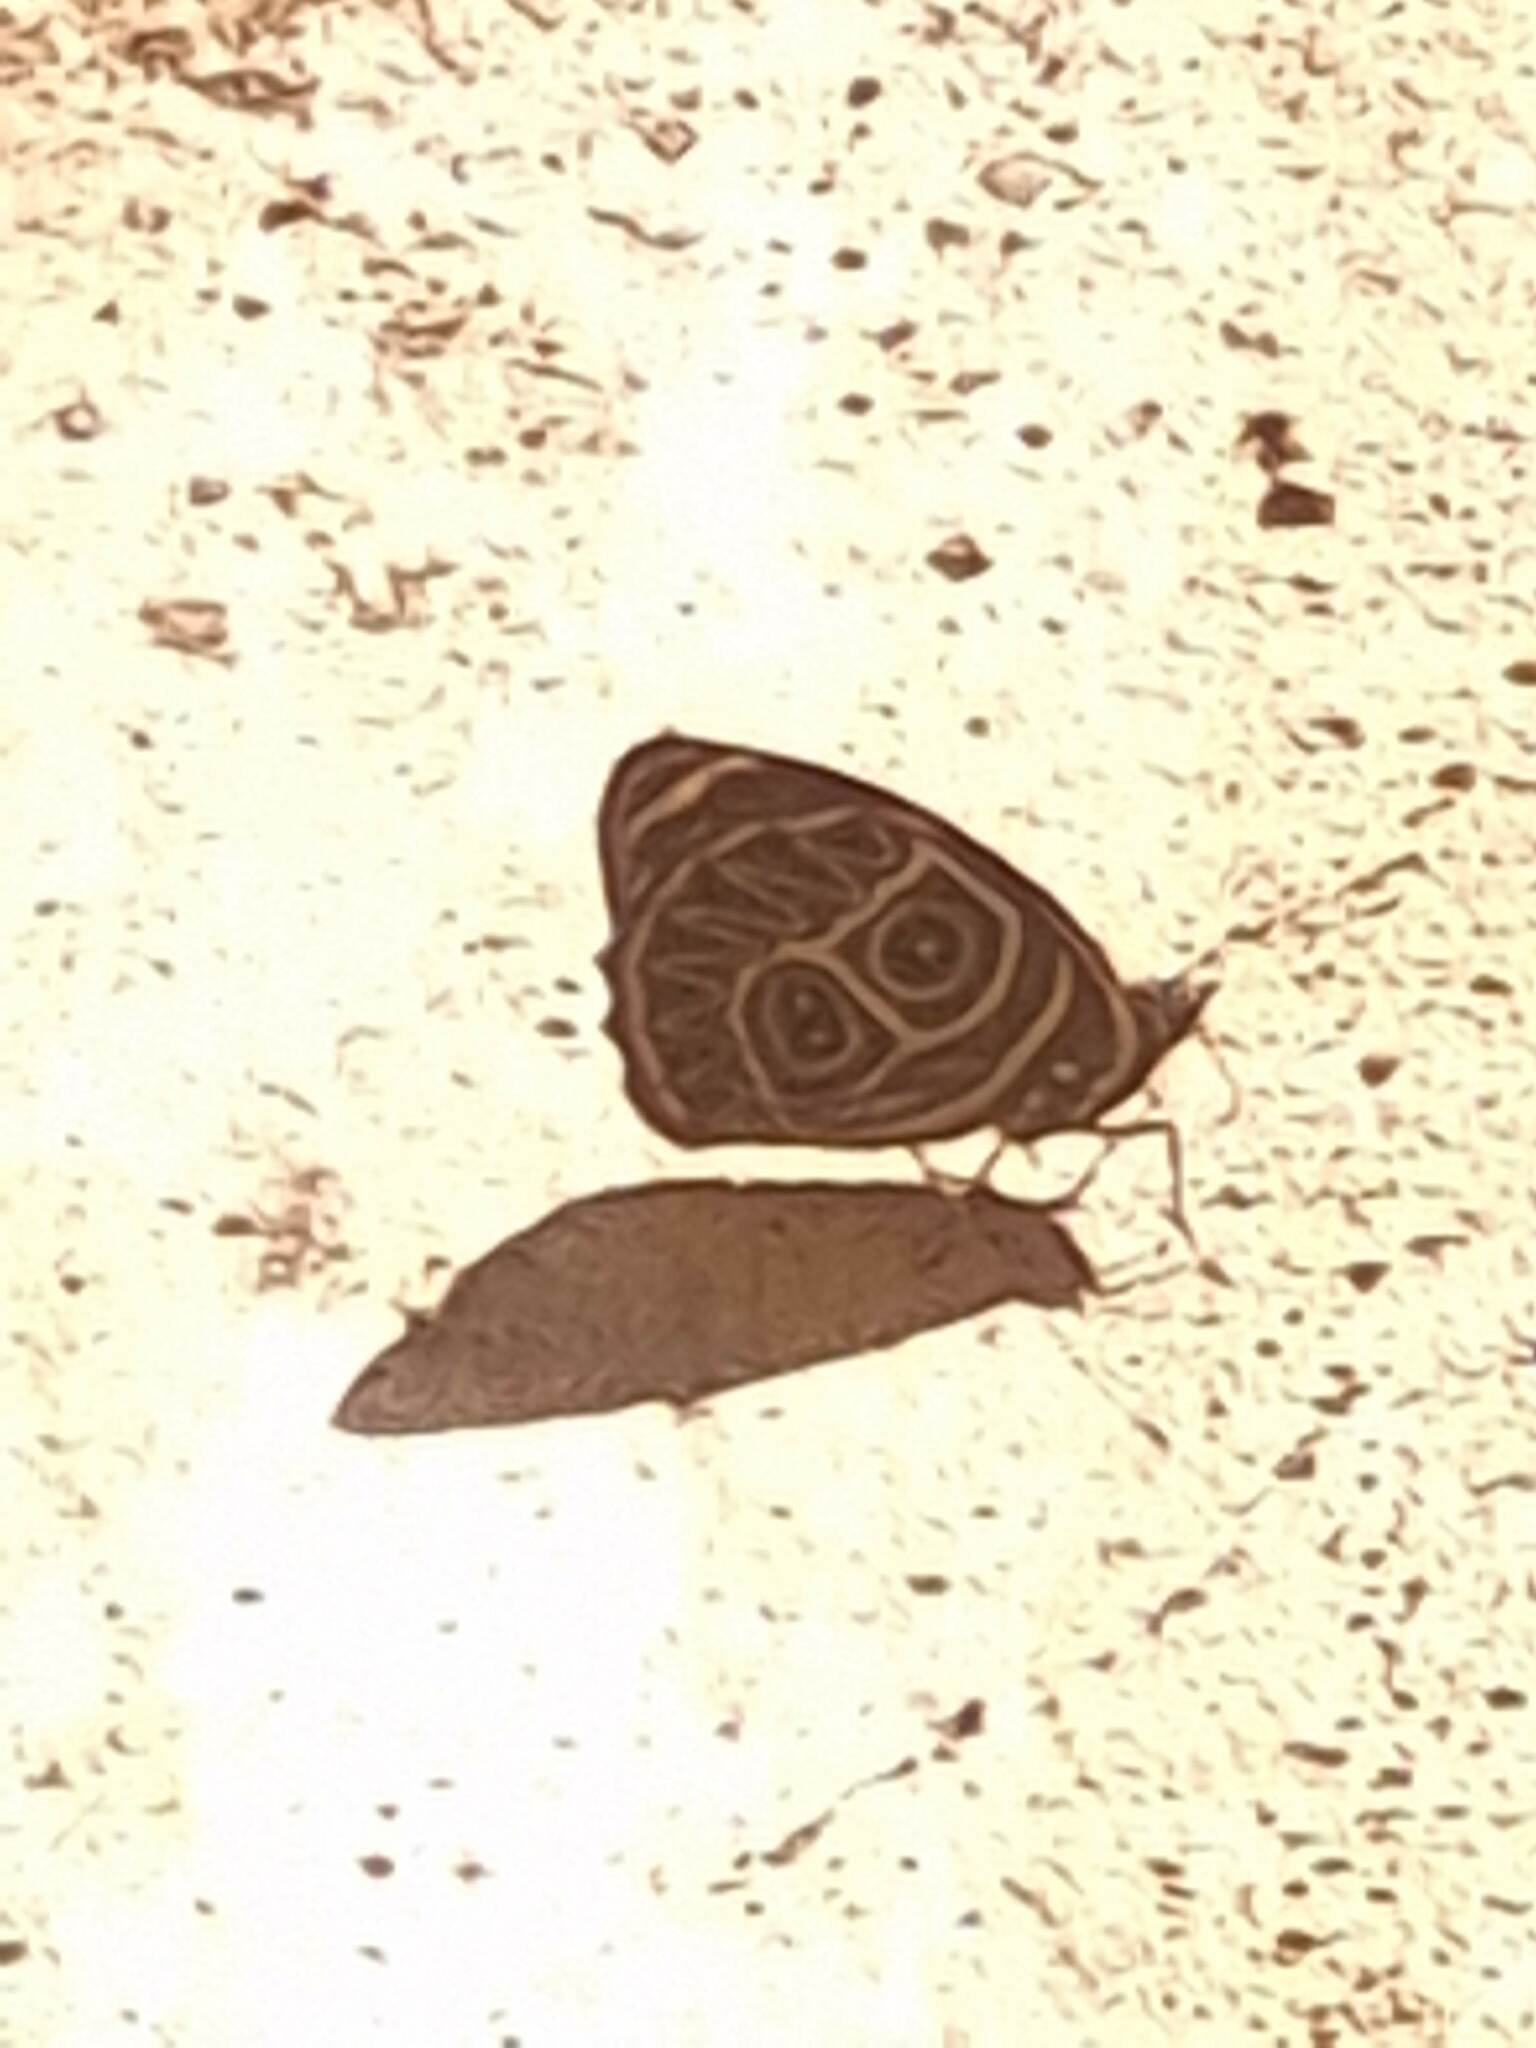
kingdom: Animalia
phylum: Arthropoda
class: Insecta
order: Lepidoptera
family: Nymphalidae
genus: Catagramma
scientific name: Catagramma Callicore sorana
